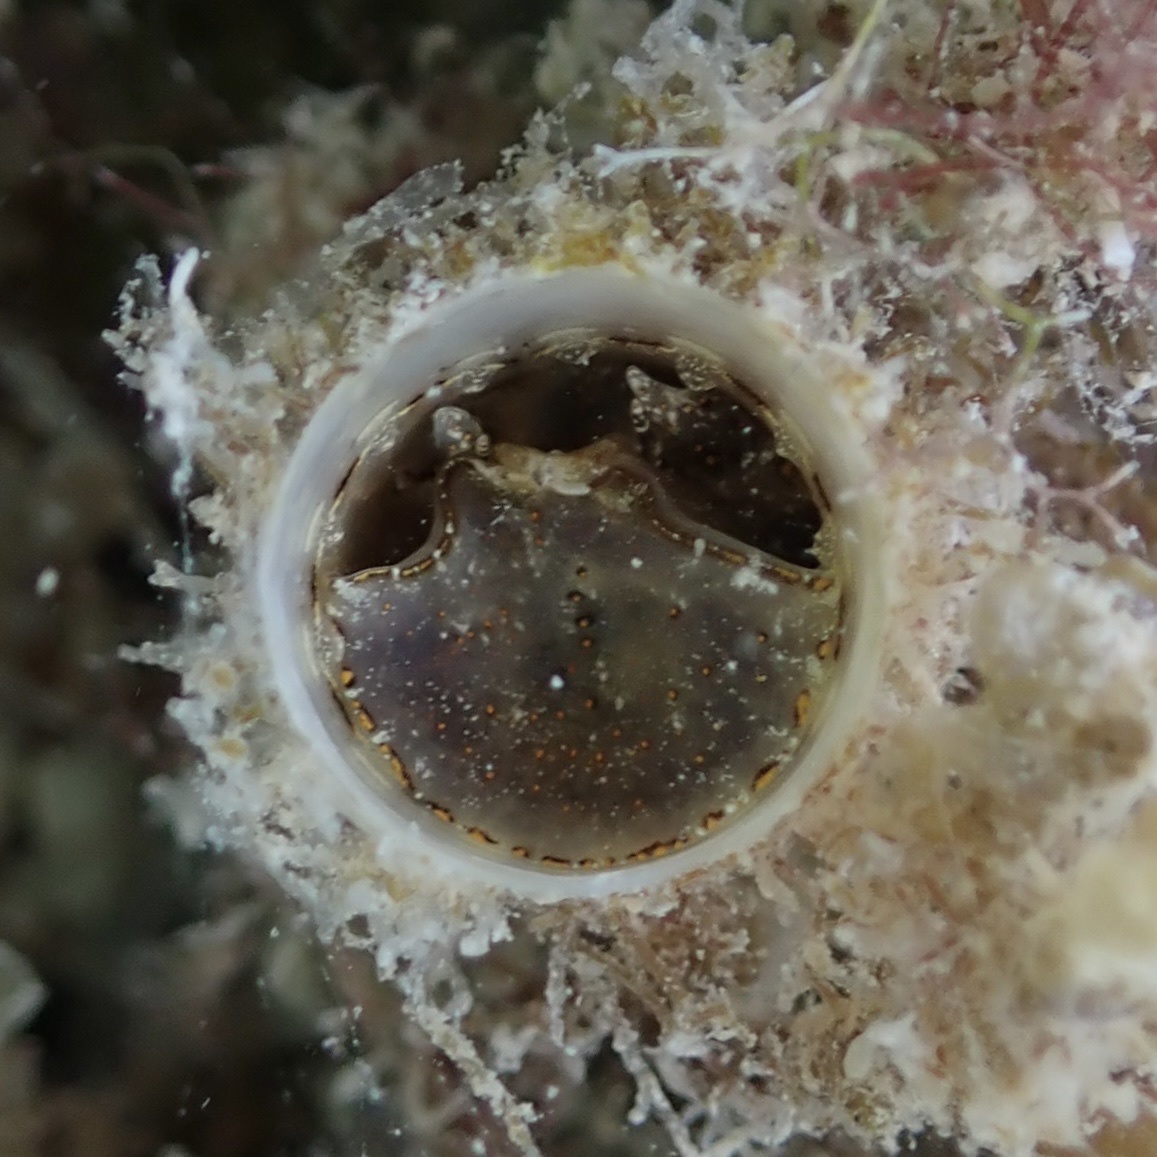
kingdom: Animalia
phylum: Mollusca
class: Gastropoda
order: Littorinimorpha
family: Vermetidae
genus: Thylacodes
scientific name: Thylacodes decussatus
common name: Decussate wormsnail
